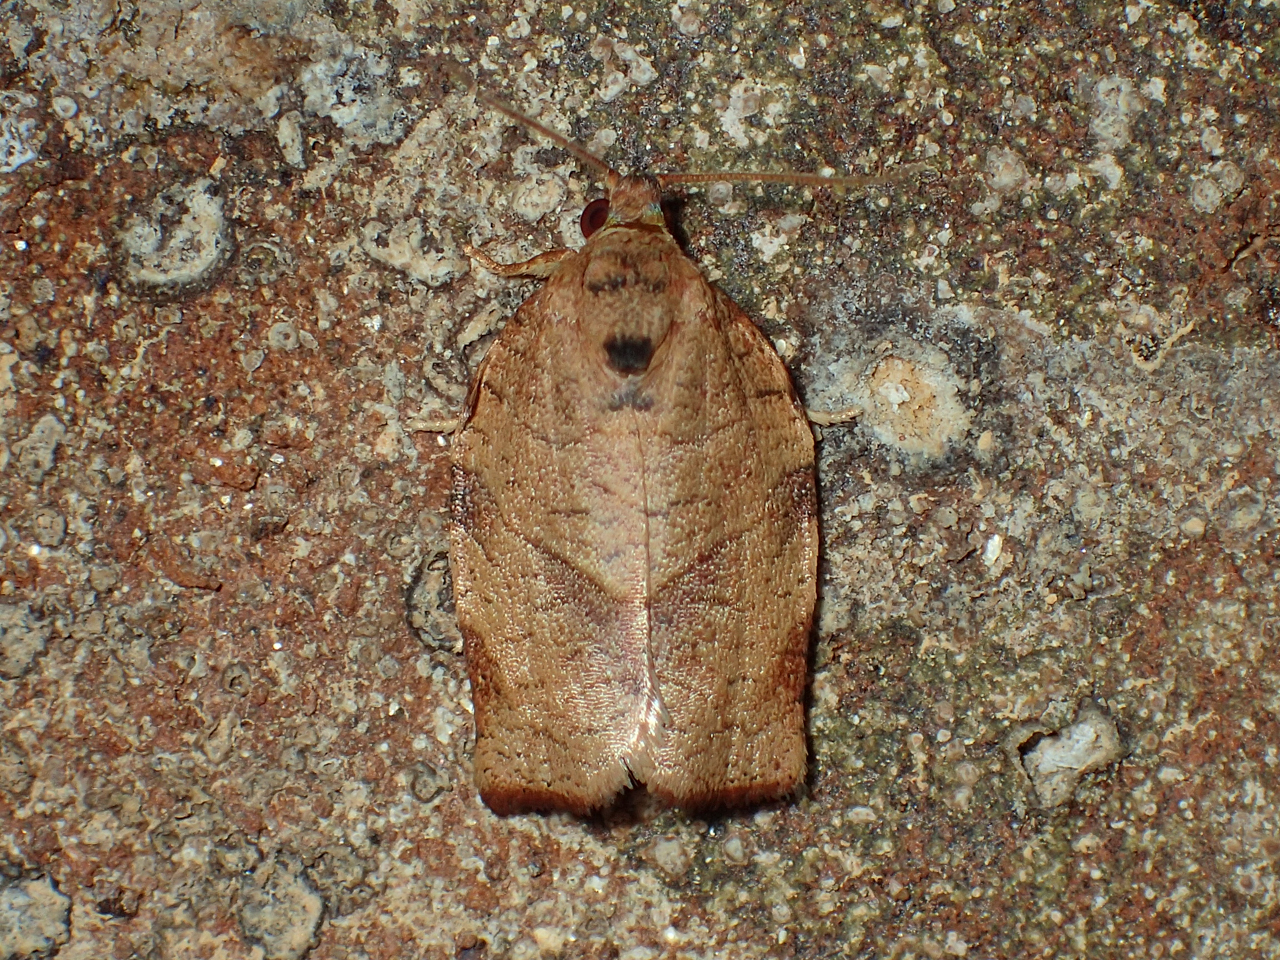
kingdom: Animalia
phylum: Arthropoda
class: Insecta
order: Lepidoptera
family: Tortricidae
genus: Choristoneura
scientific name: Choristoneura rosaceana
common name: Oblique-banded leafroller moth
